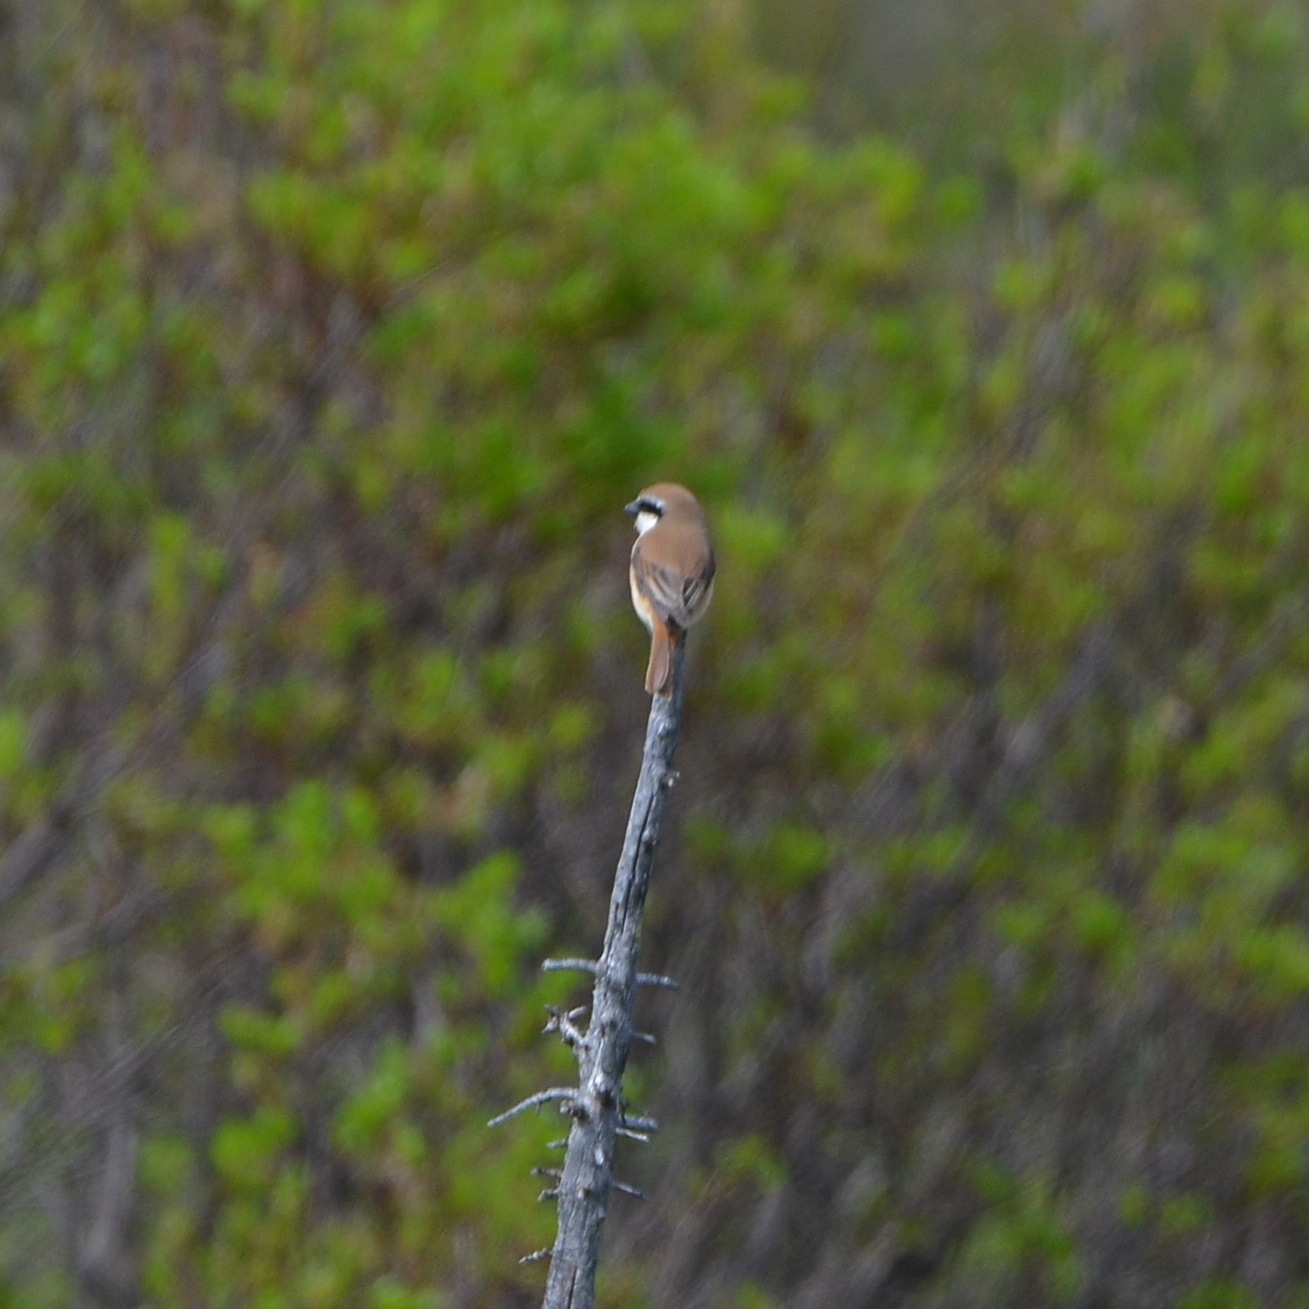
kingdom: Animalia
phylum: Chordata
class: Aves
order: Passeriformes
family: Laniidae
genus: Lanius
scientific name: Lanius cristatus
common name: Brown shrike
